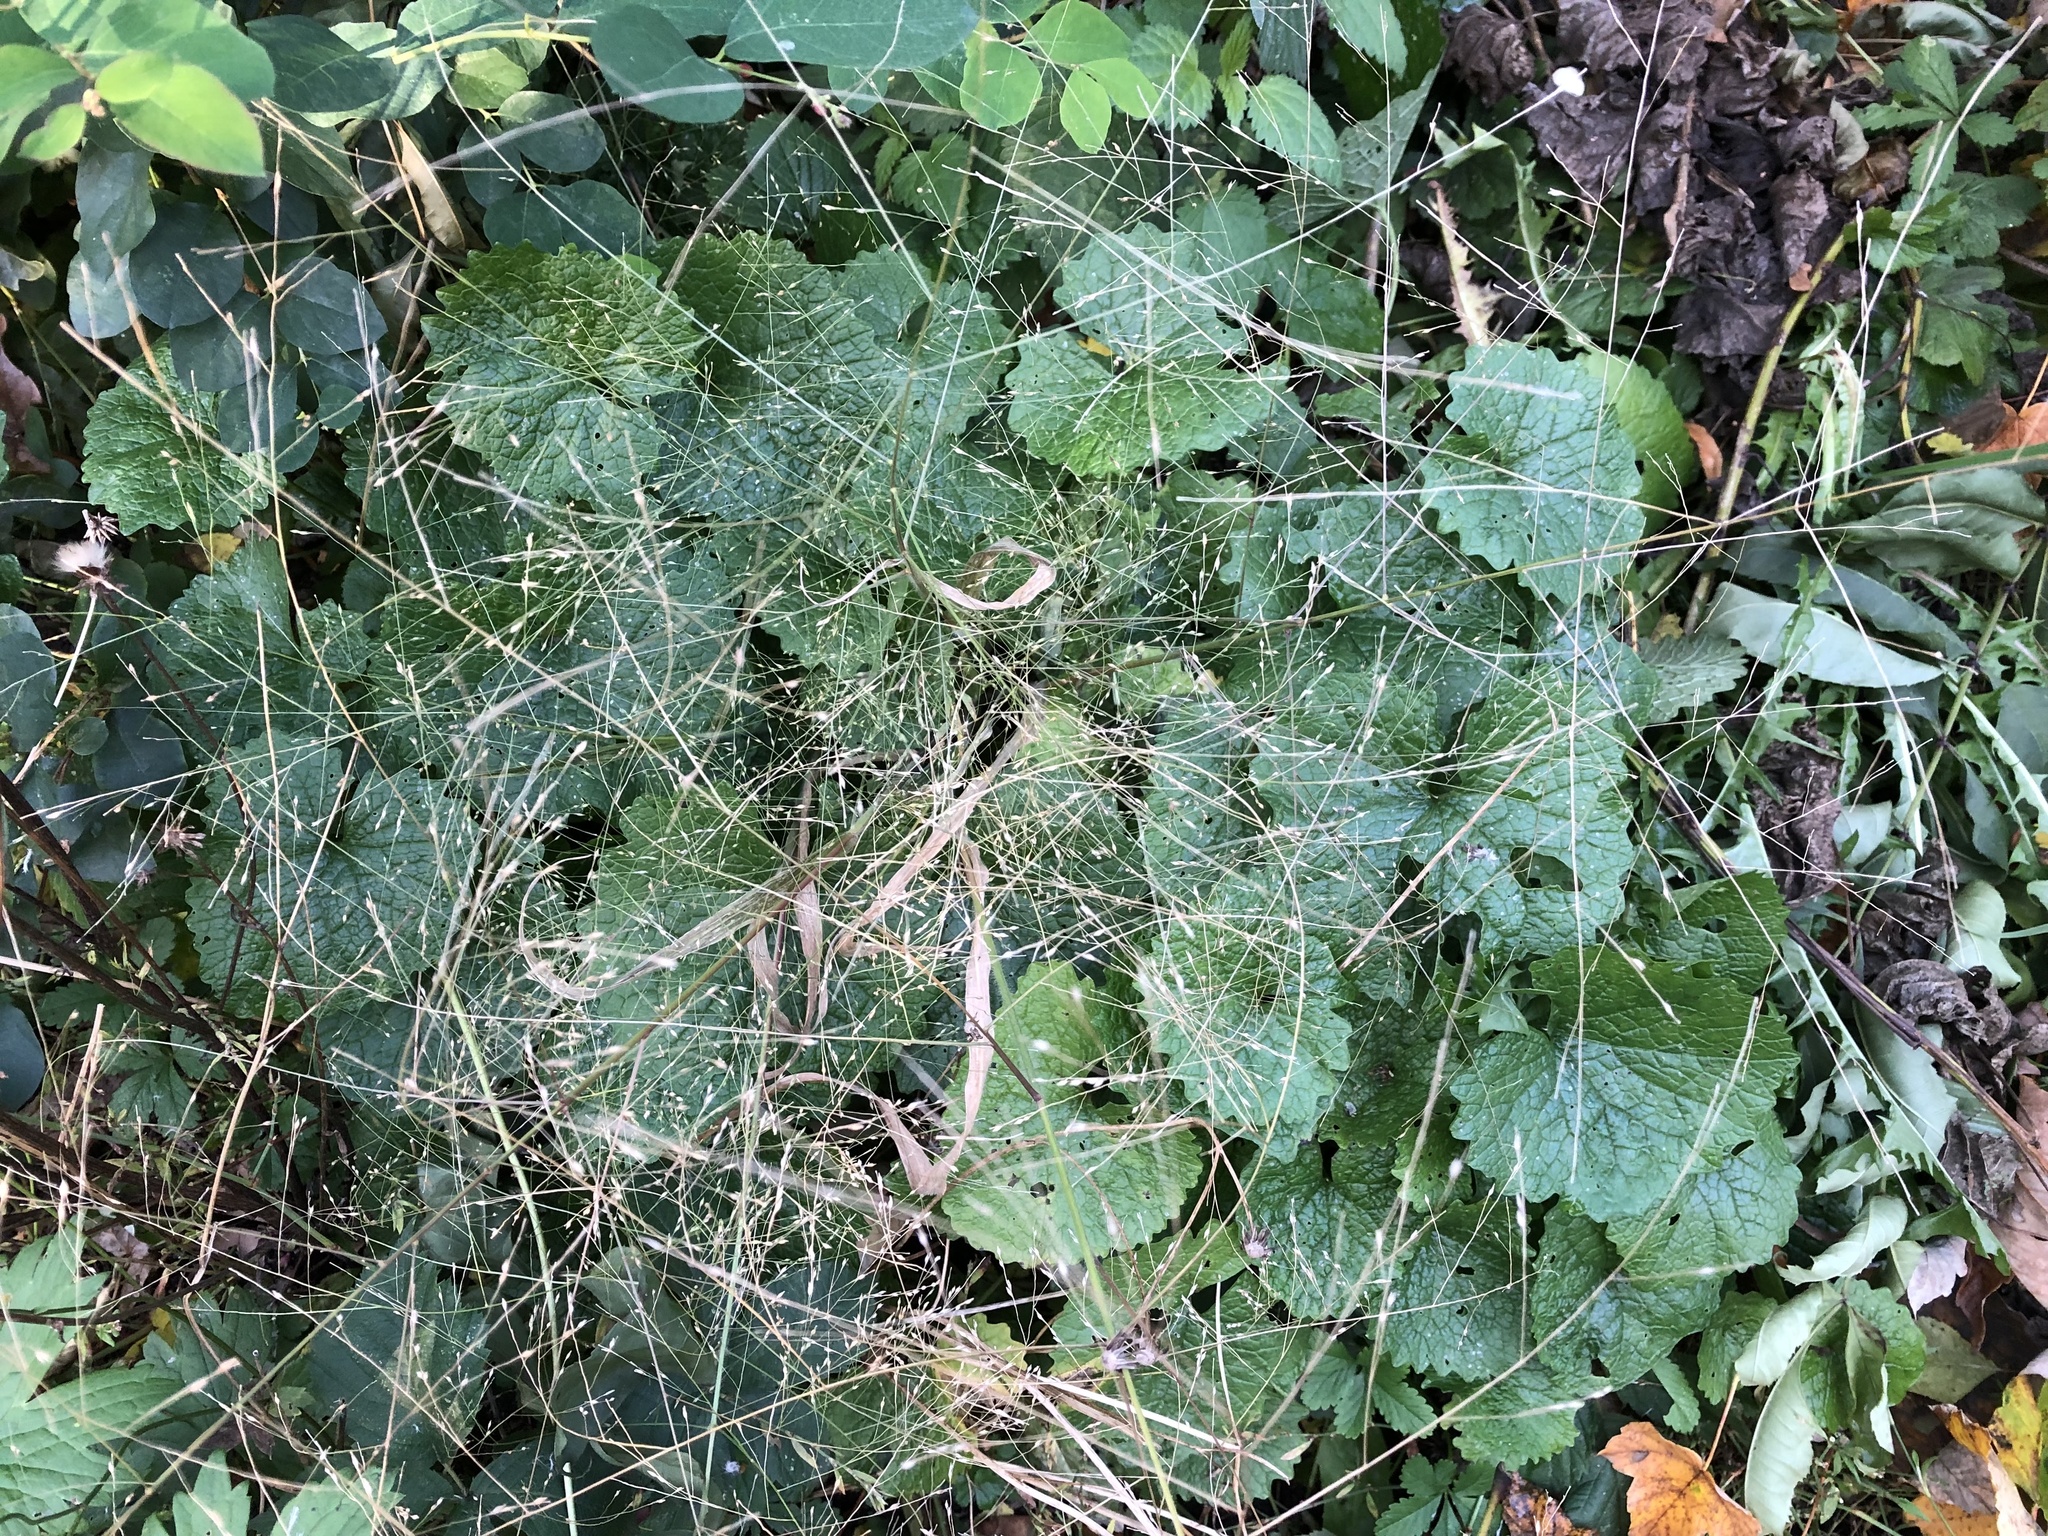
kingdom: Plantae
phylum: Tracheophyta
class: Liliopsida
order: Poales
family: Poaceae
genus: Panicum
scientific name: Panicum capillare
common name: Witch-grass
